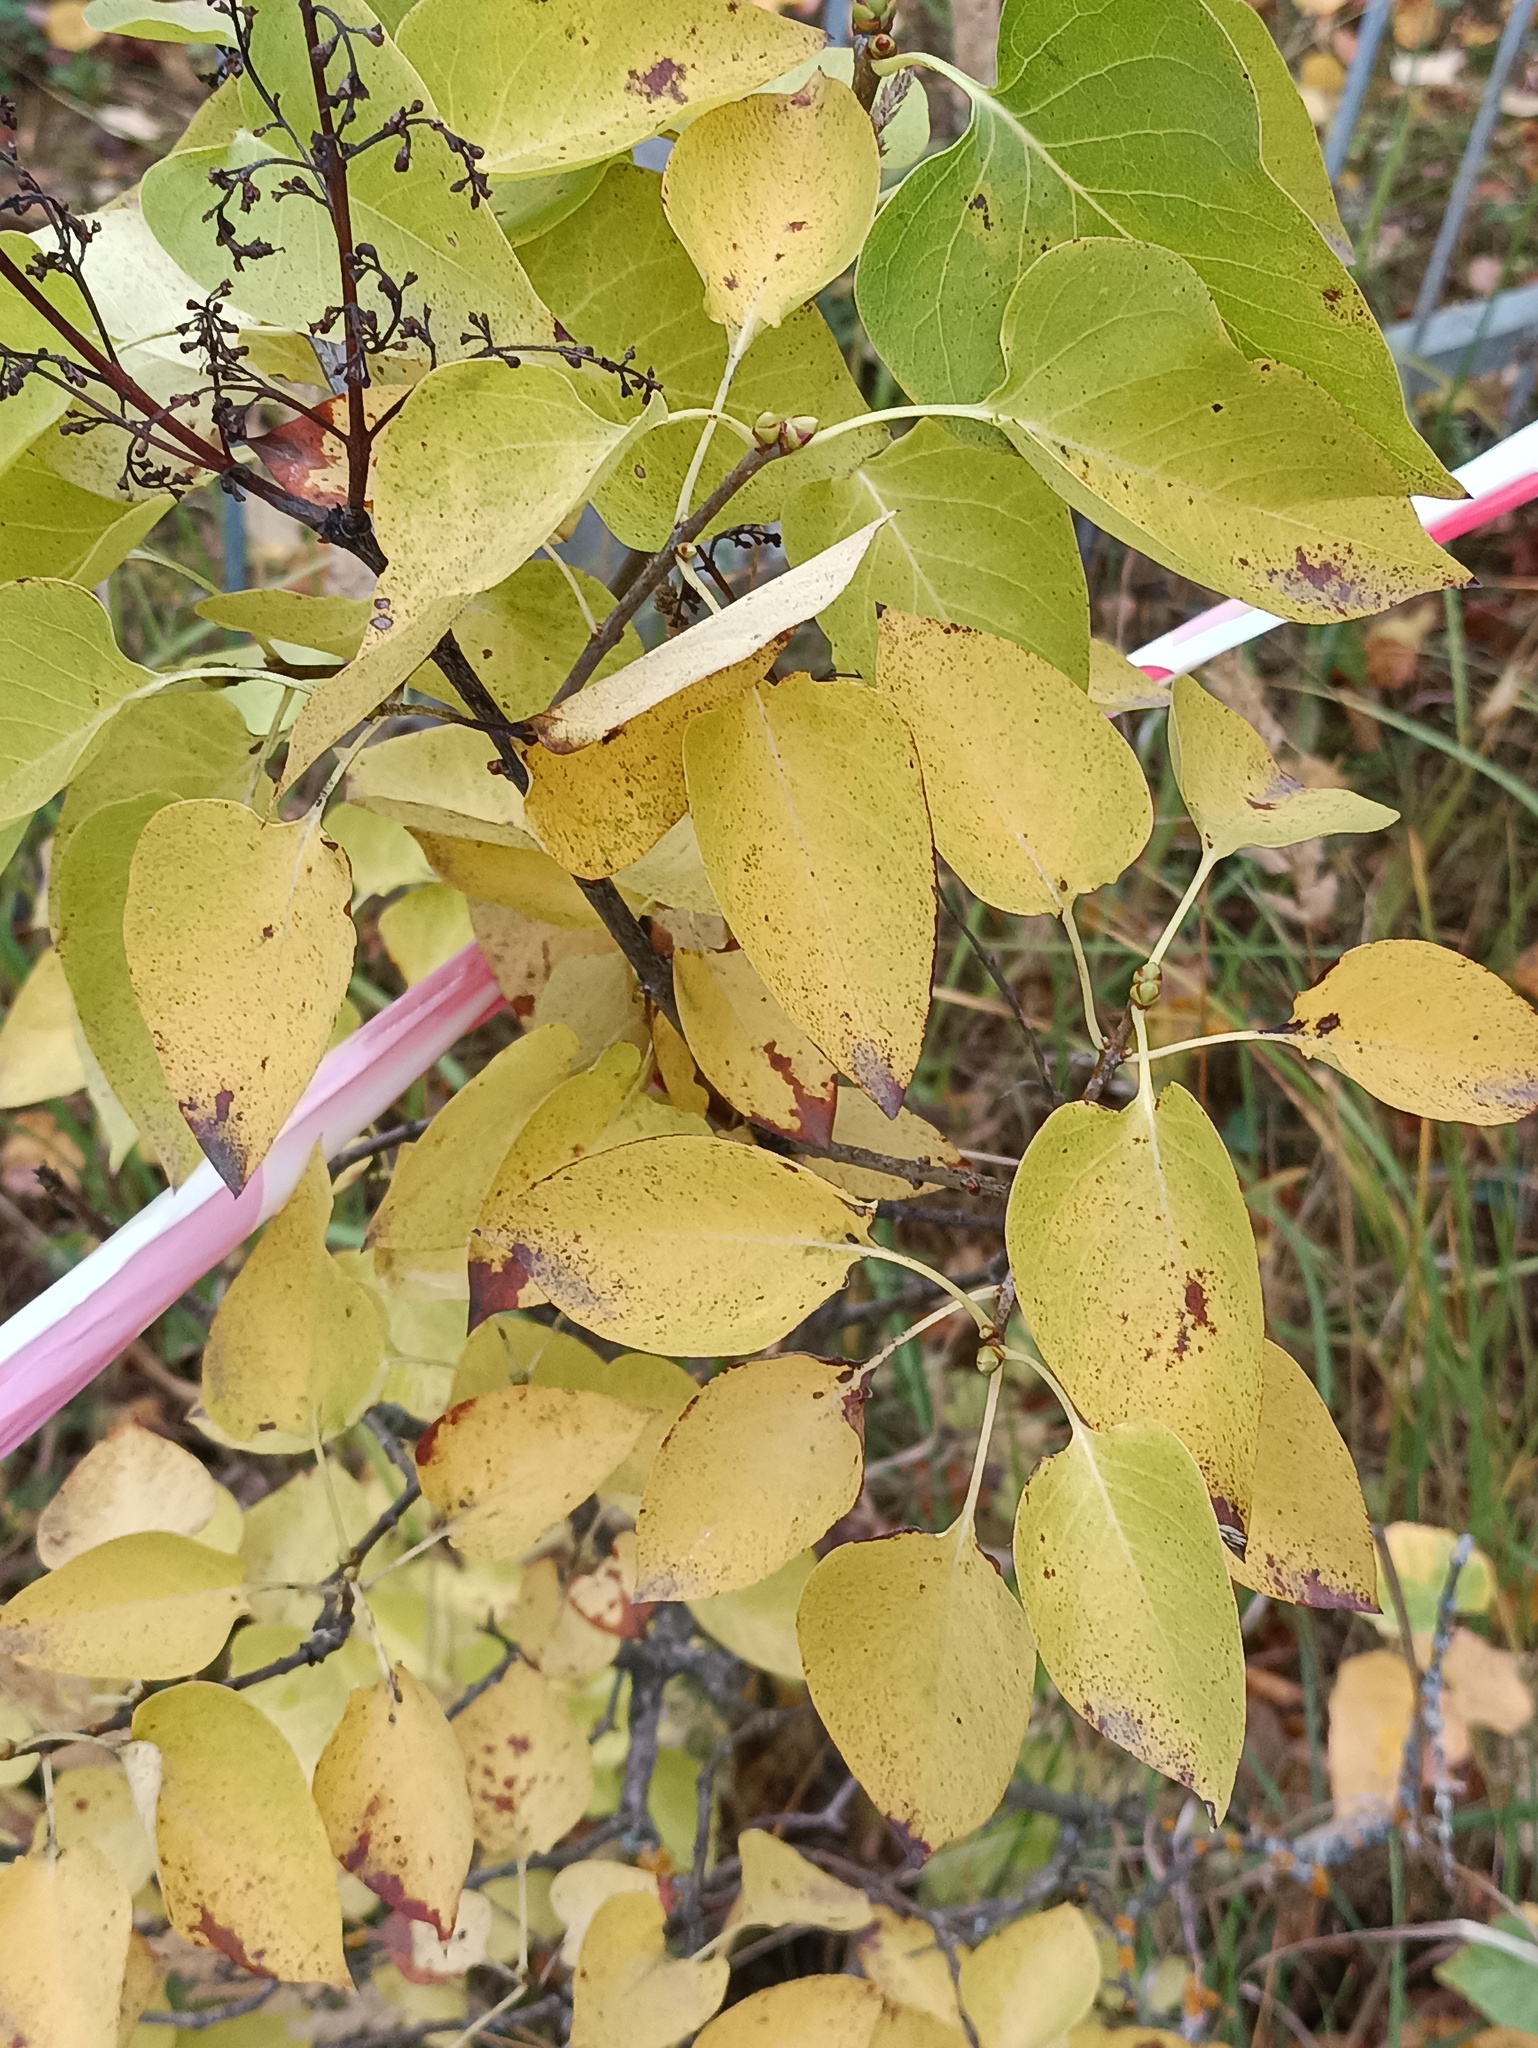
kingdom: Plantae
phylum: Tracheophyta
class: Magnoliopsida
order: Lamiales
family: Oleaceae
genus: Syringa
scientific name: Syringa vulgaris
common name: Common lilac
